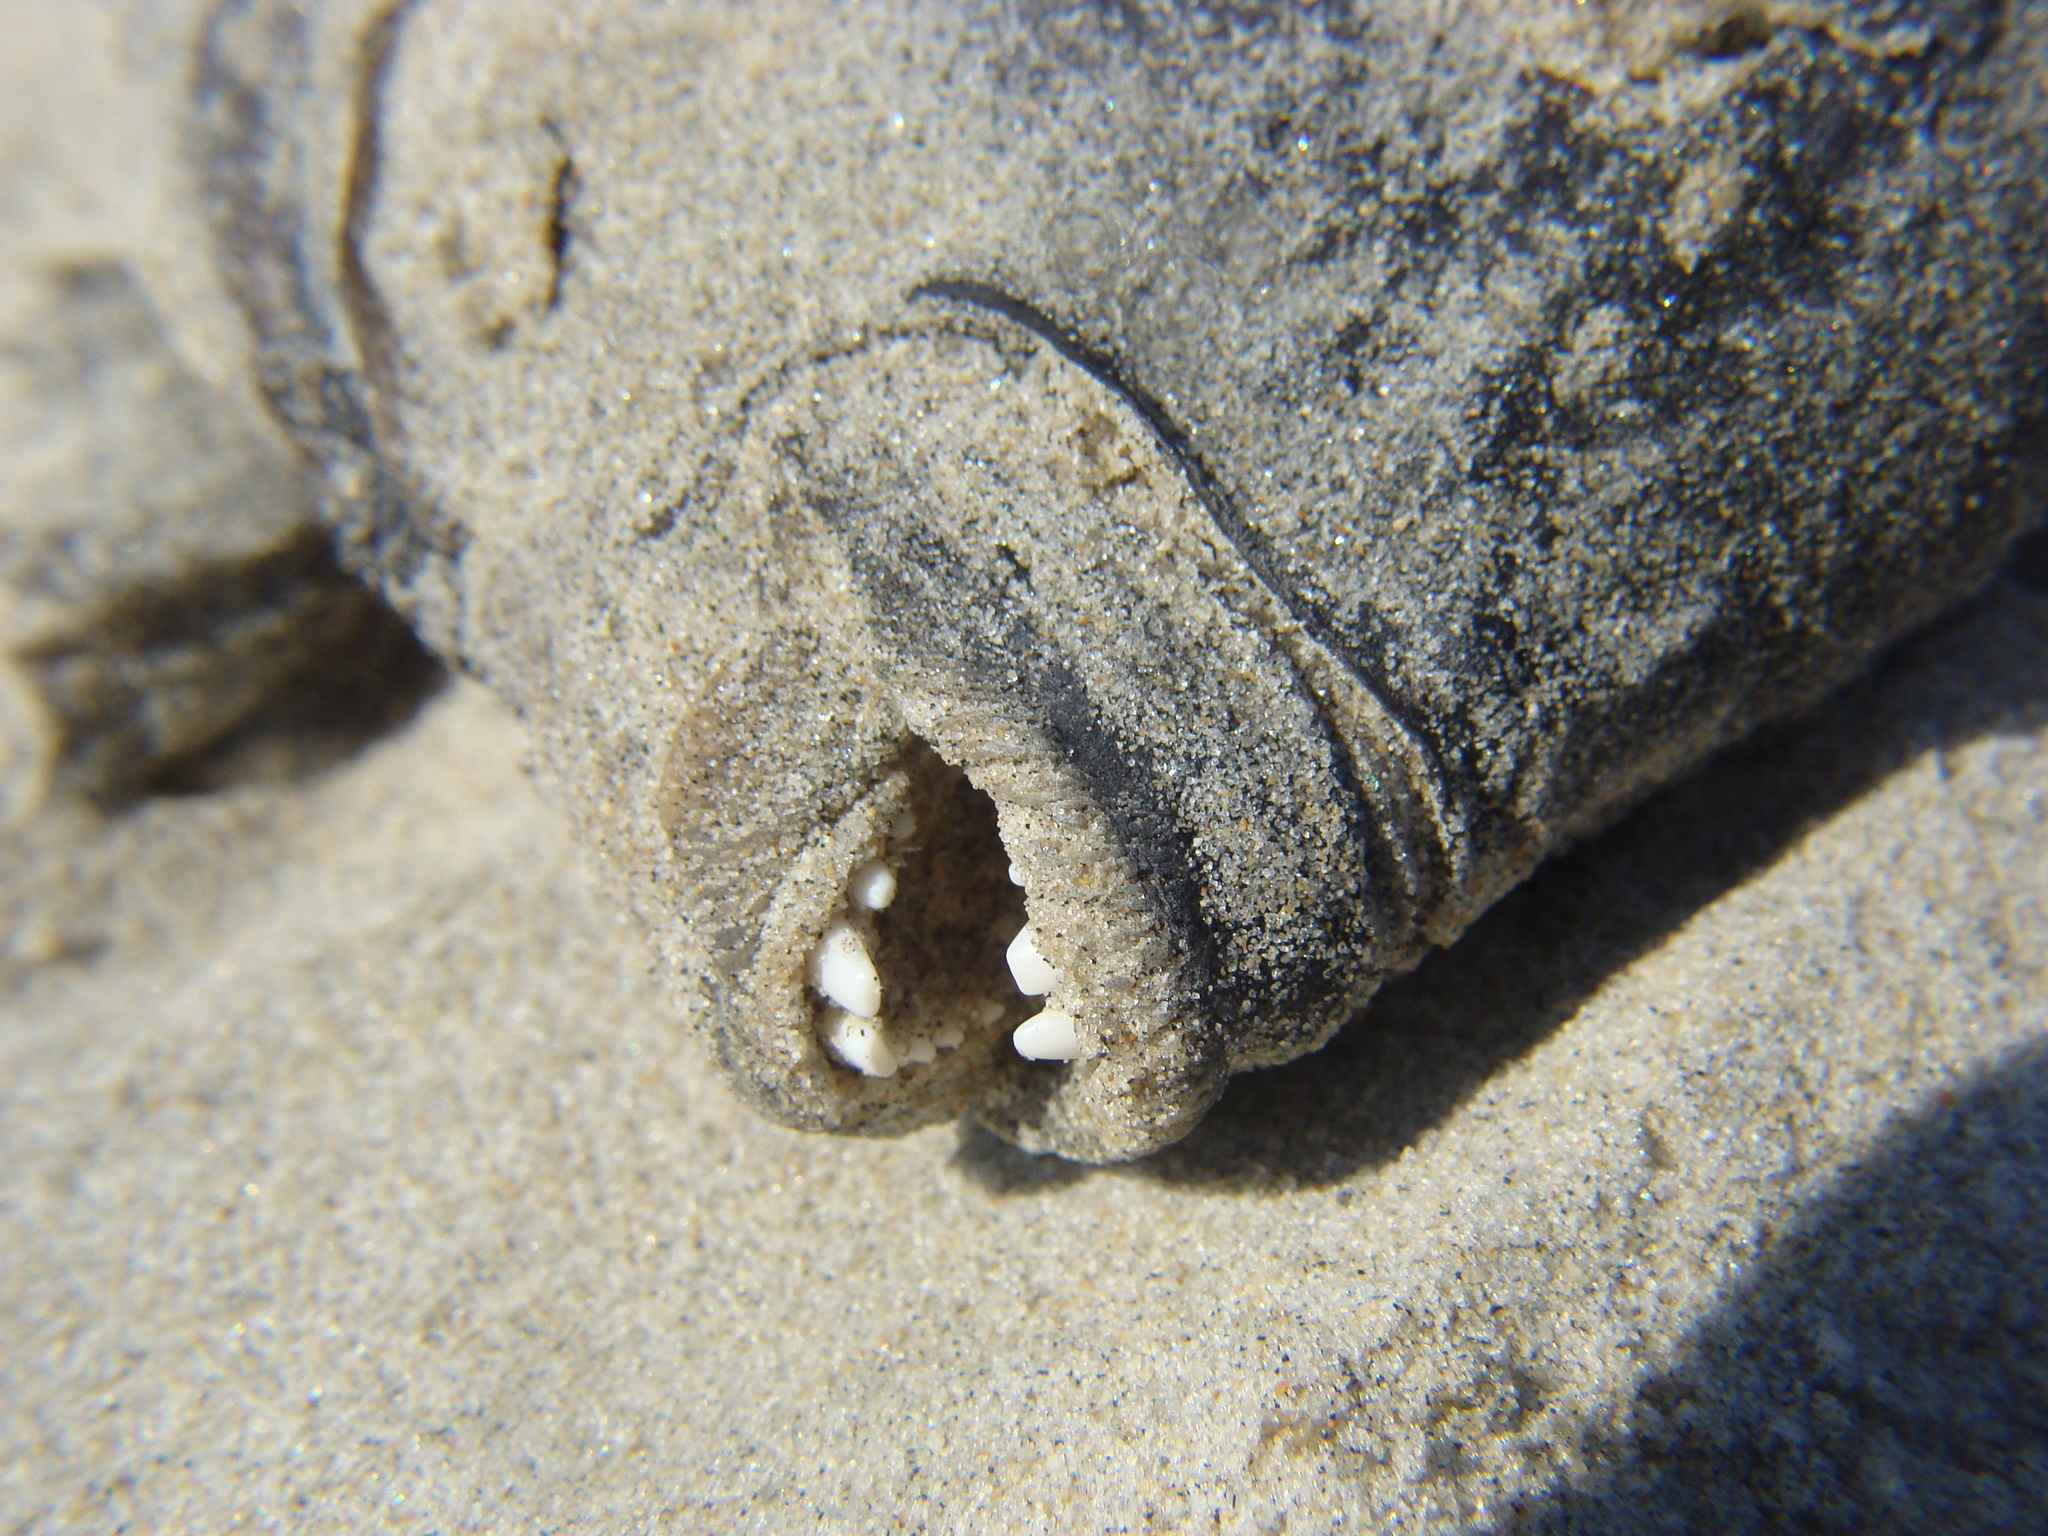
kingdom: Animalia
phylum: Chordata
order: Perciformes
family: Labridae
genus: Tautoga
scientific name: Tautoga onitis
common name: Tautog
